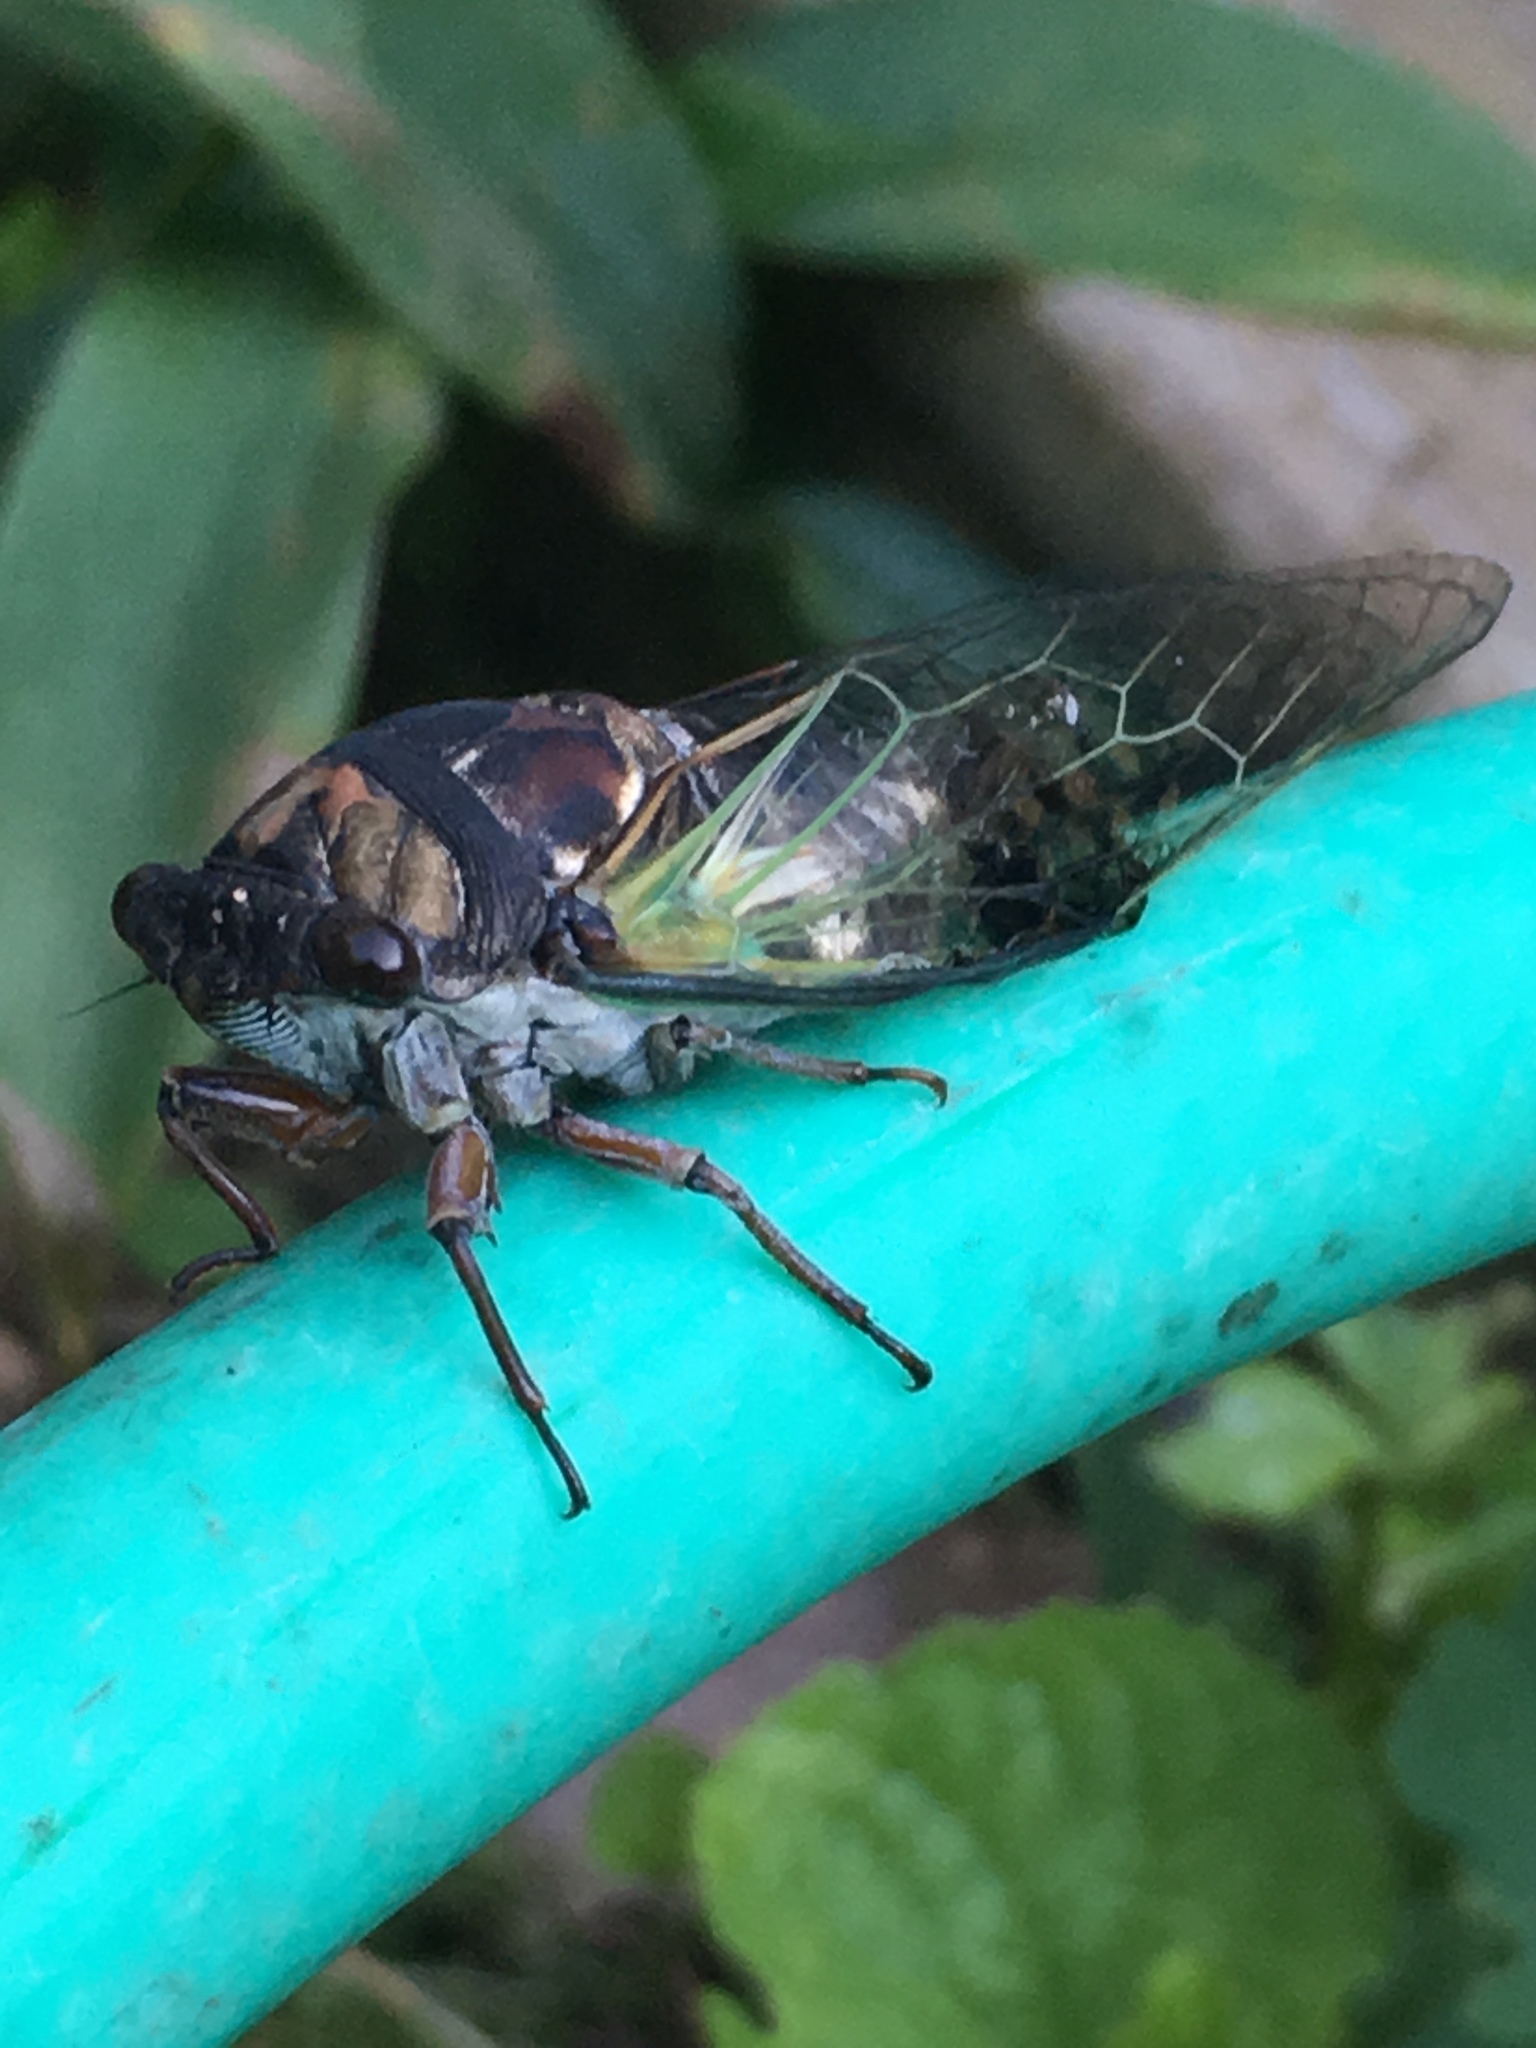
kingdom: Animalia
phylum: Arthropoda
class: Insecta
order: Hemiptera
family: Cicadidae
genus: Neotibicen
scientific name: Neotibicen lyricen
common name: Lyric cicada
